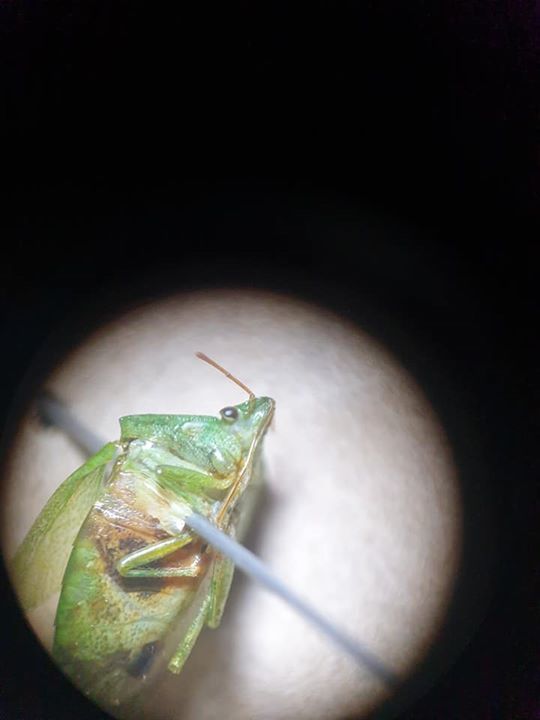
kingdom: Animalia
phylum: Arthropoda
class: Insecta
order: Hemiptera
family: Pentatomidae
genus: Cuspicona
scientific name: Cuspicona simplex
